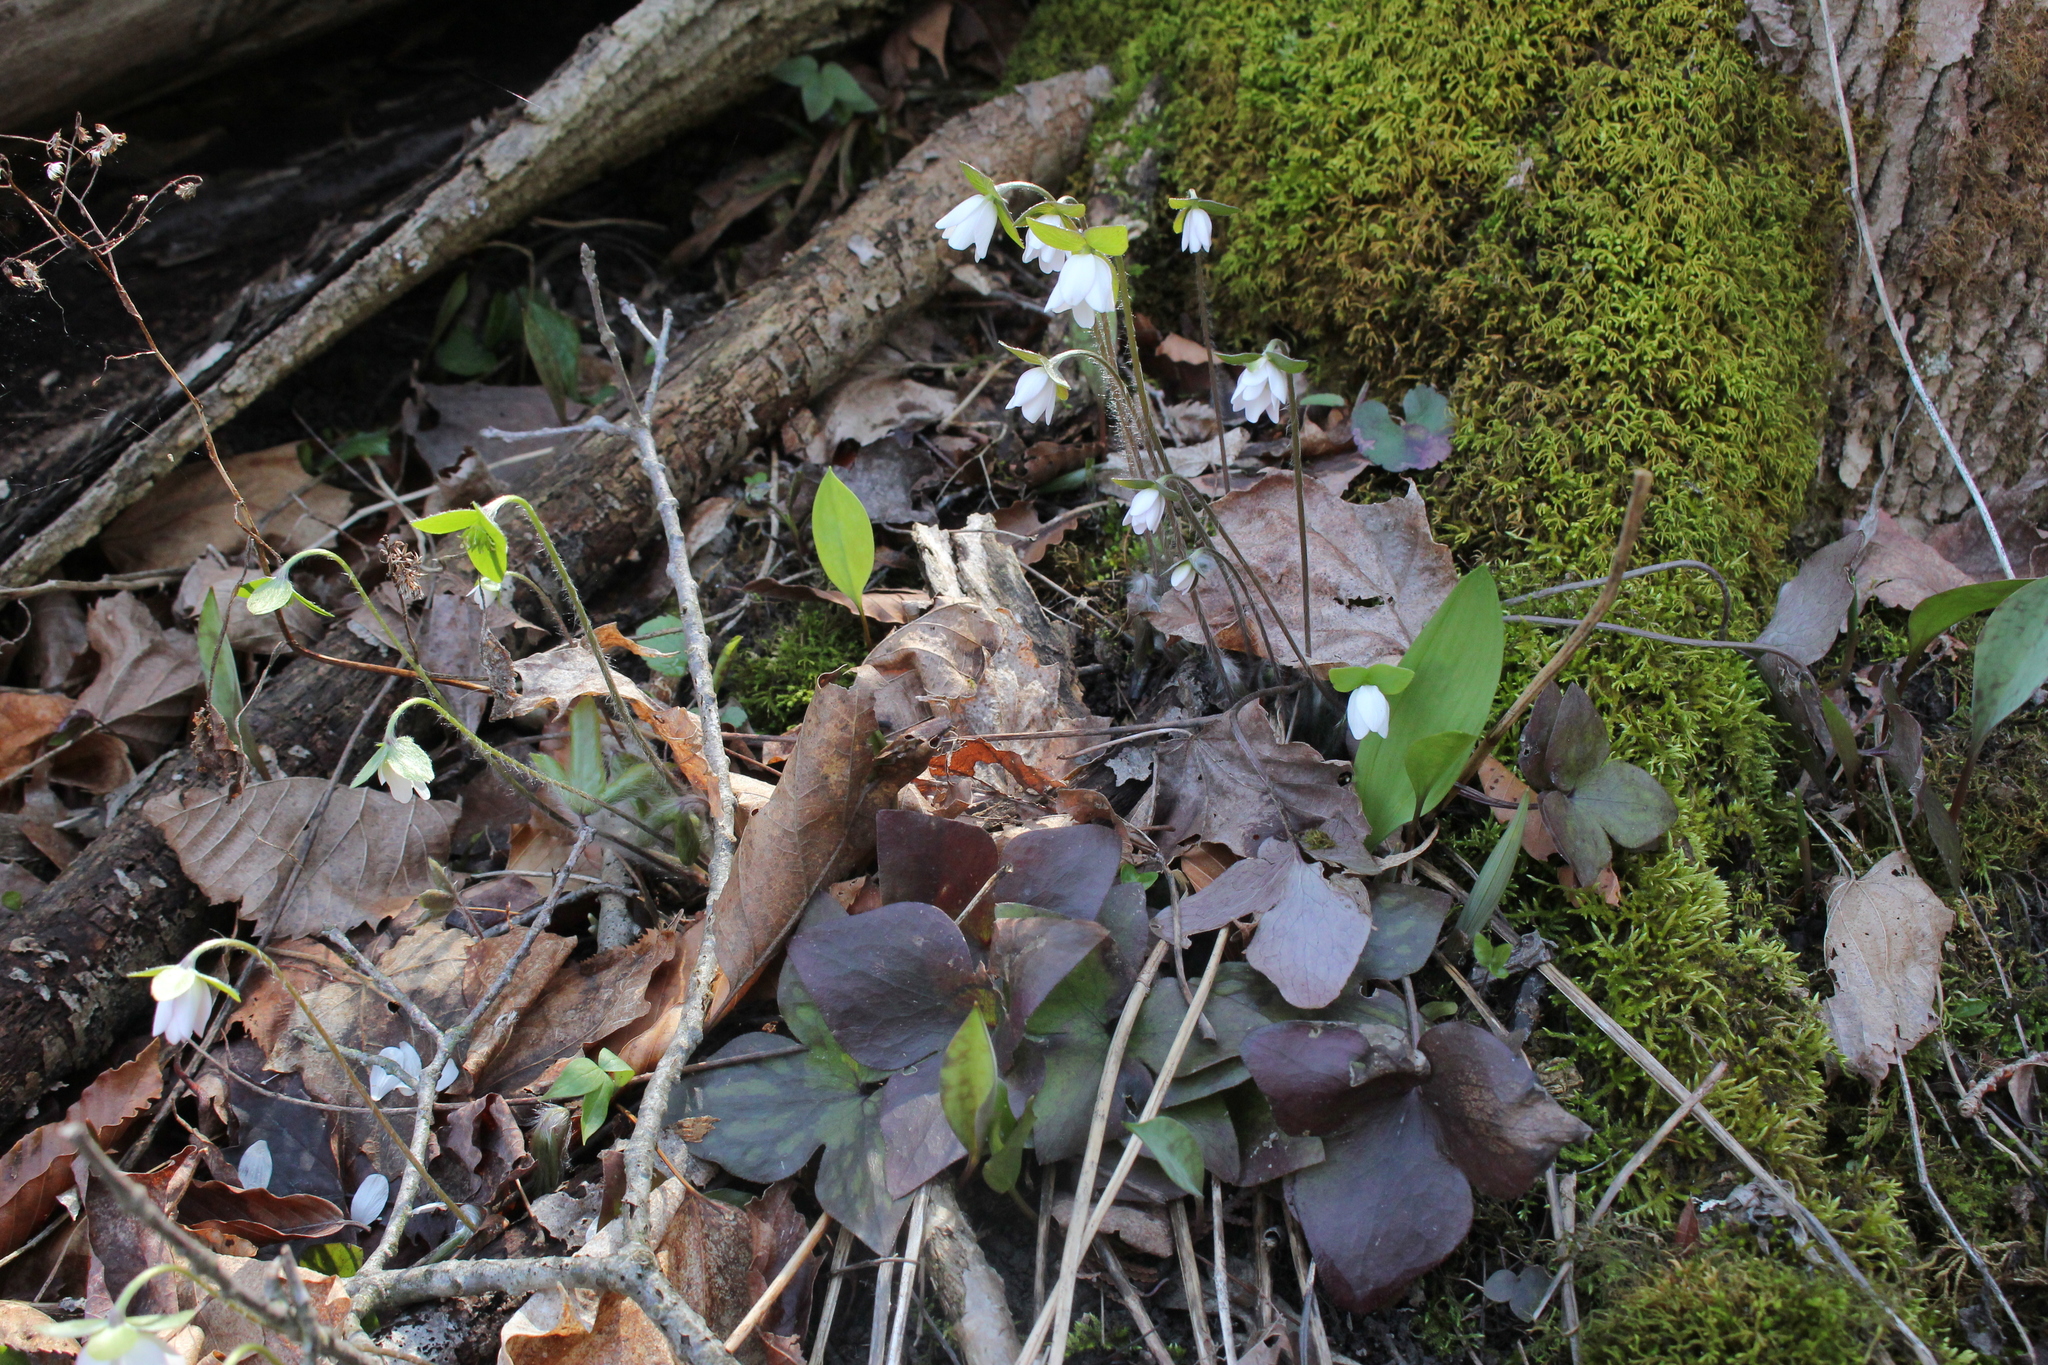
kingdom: Plantae
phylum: Tracheophyta
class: Magnoliopsida
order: Ranunculales
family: Ranunculaceae
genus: Hepatica
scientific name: Hepatica acutiloba
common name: Sharp-lobed hepatica
